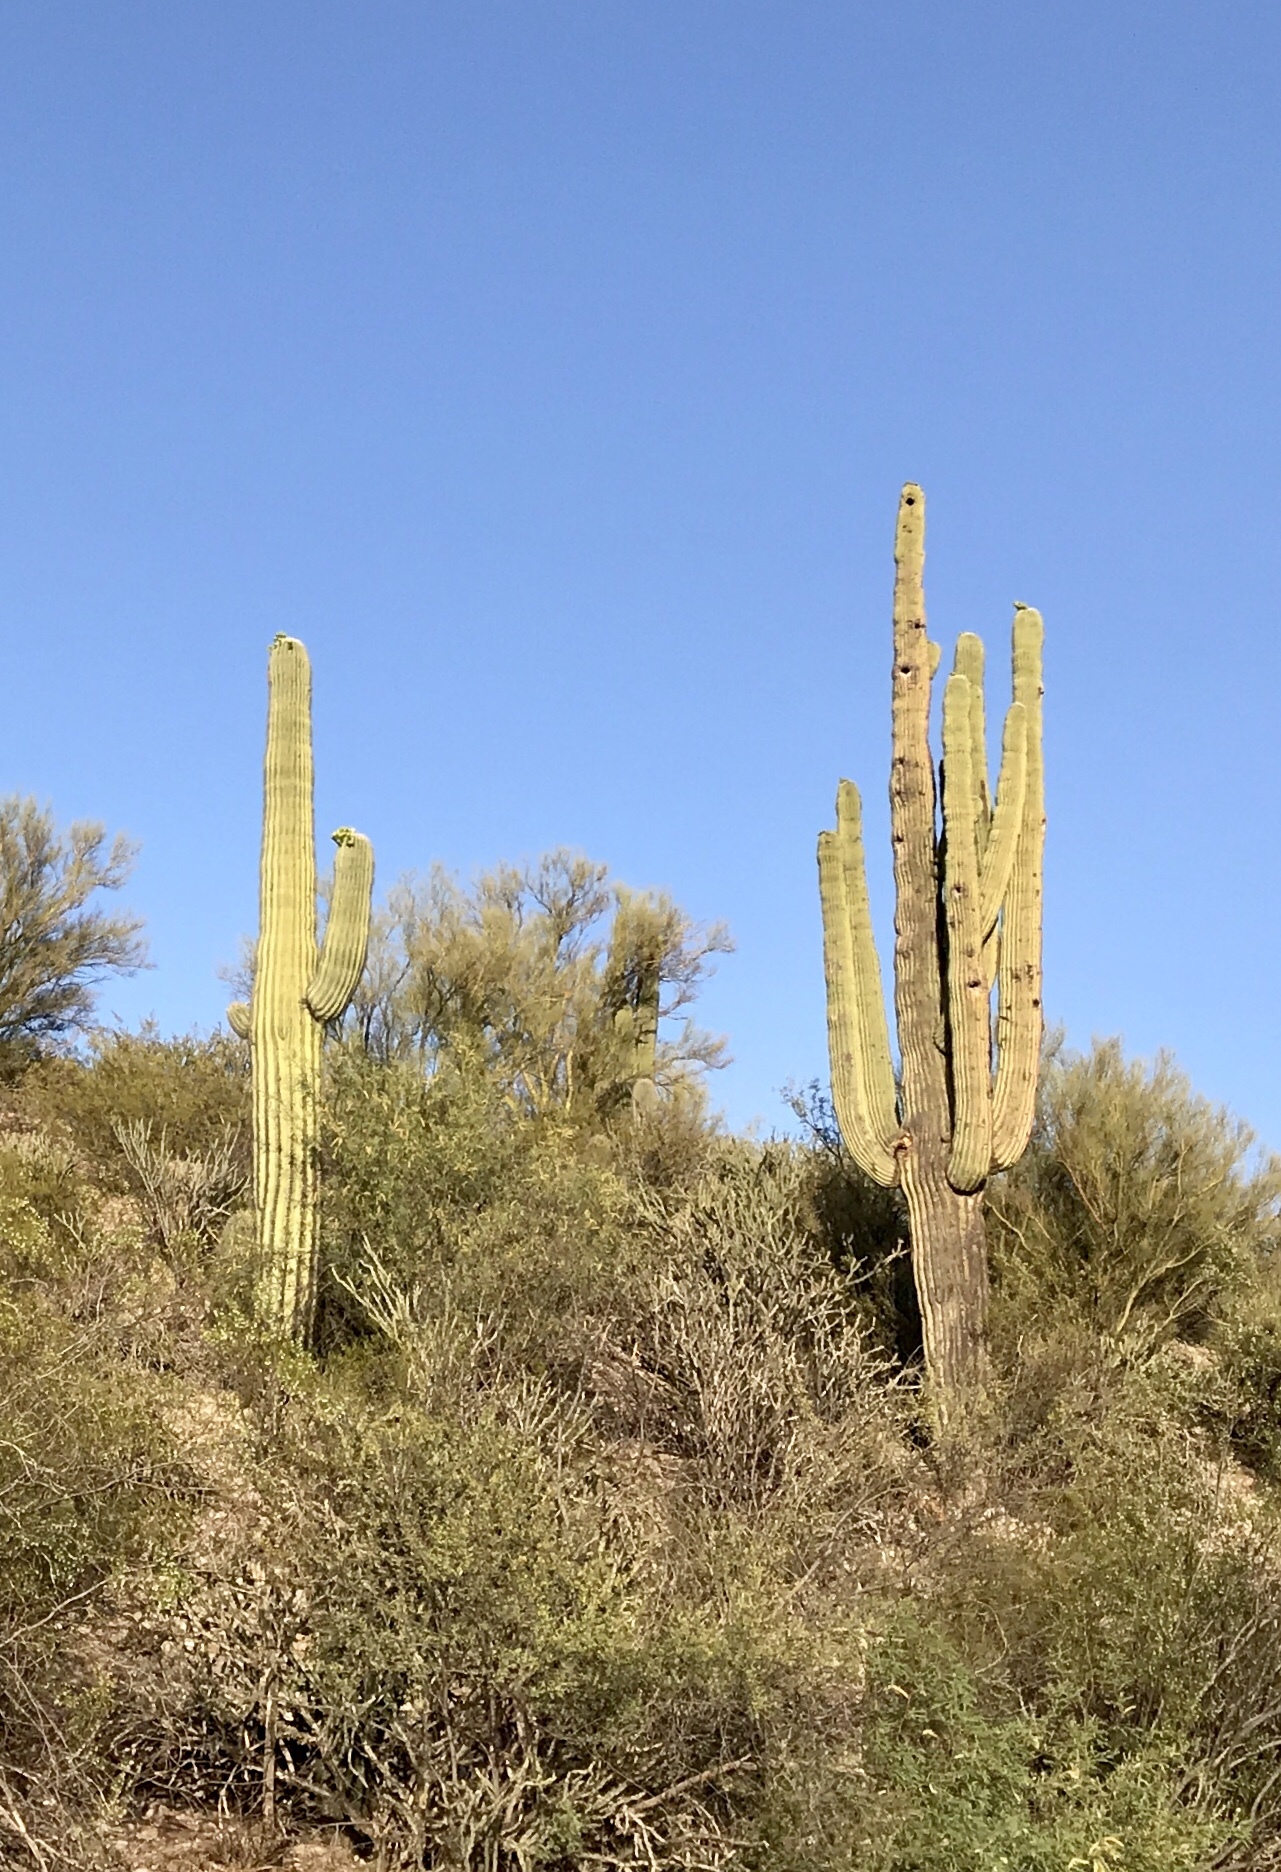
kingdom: Plantae
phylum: Tracheophyta
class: Magnoliopsida
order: Caryophyllales
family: Cactaceae
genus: Carnegiea
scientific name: Carnegiea gigantea
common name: Saguaro
